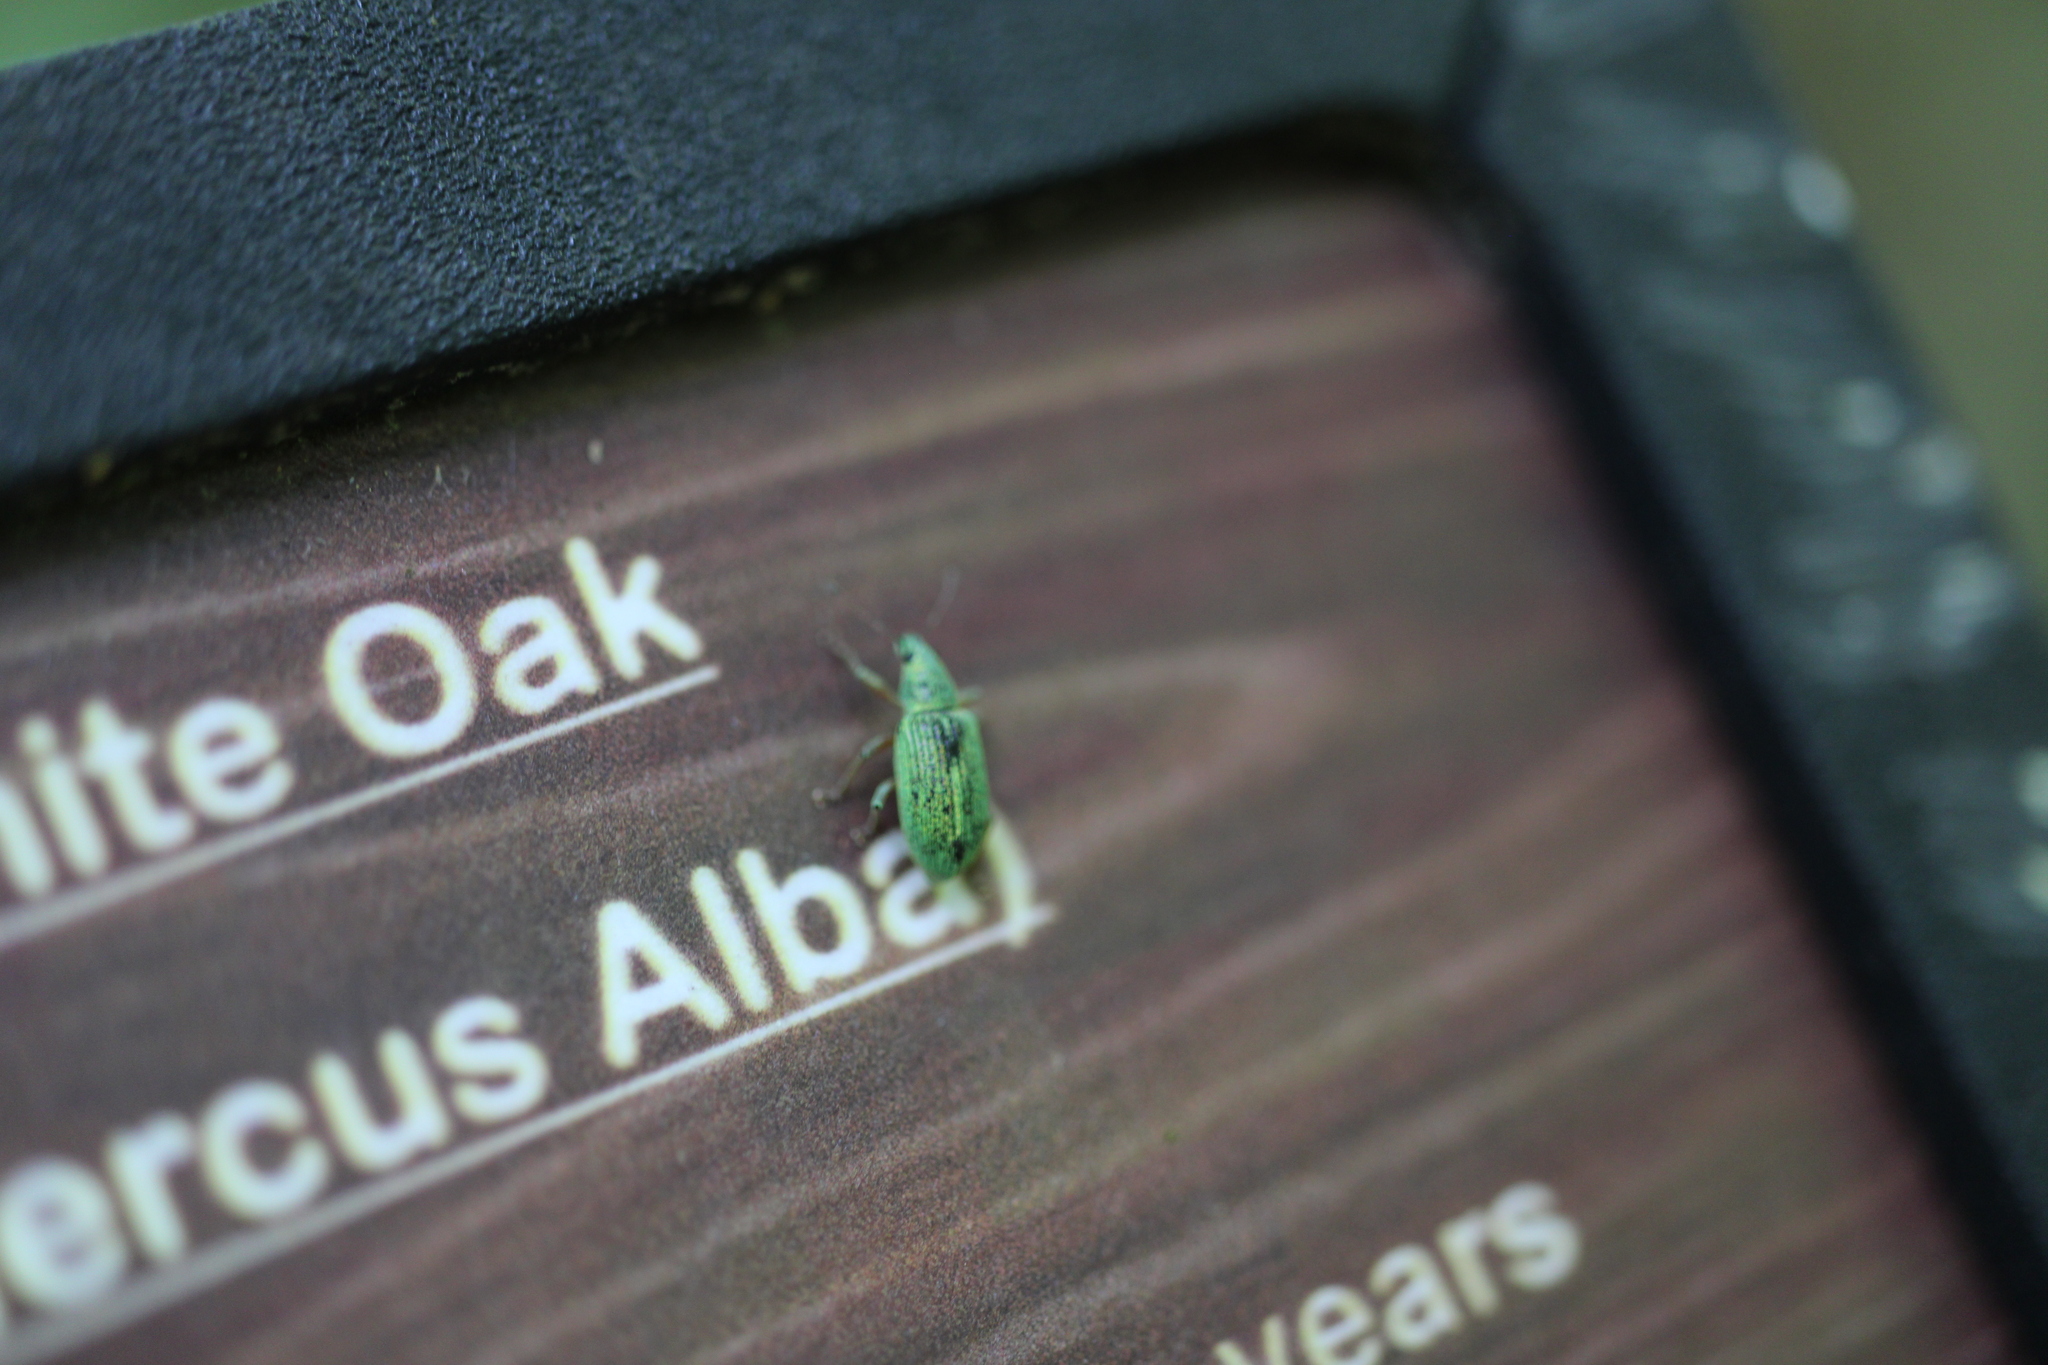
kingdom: Animalia
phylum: Arthropoda
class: Insecta
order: Coleoptera
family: Curculionidae
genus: Polydrusus
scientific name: Polydrusus formosus
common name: Weevil
